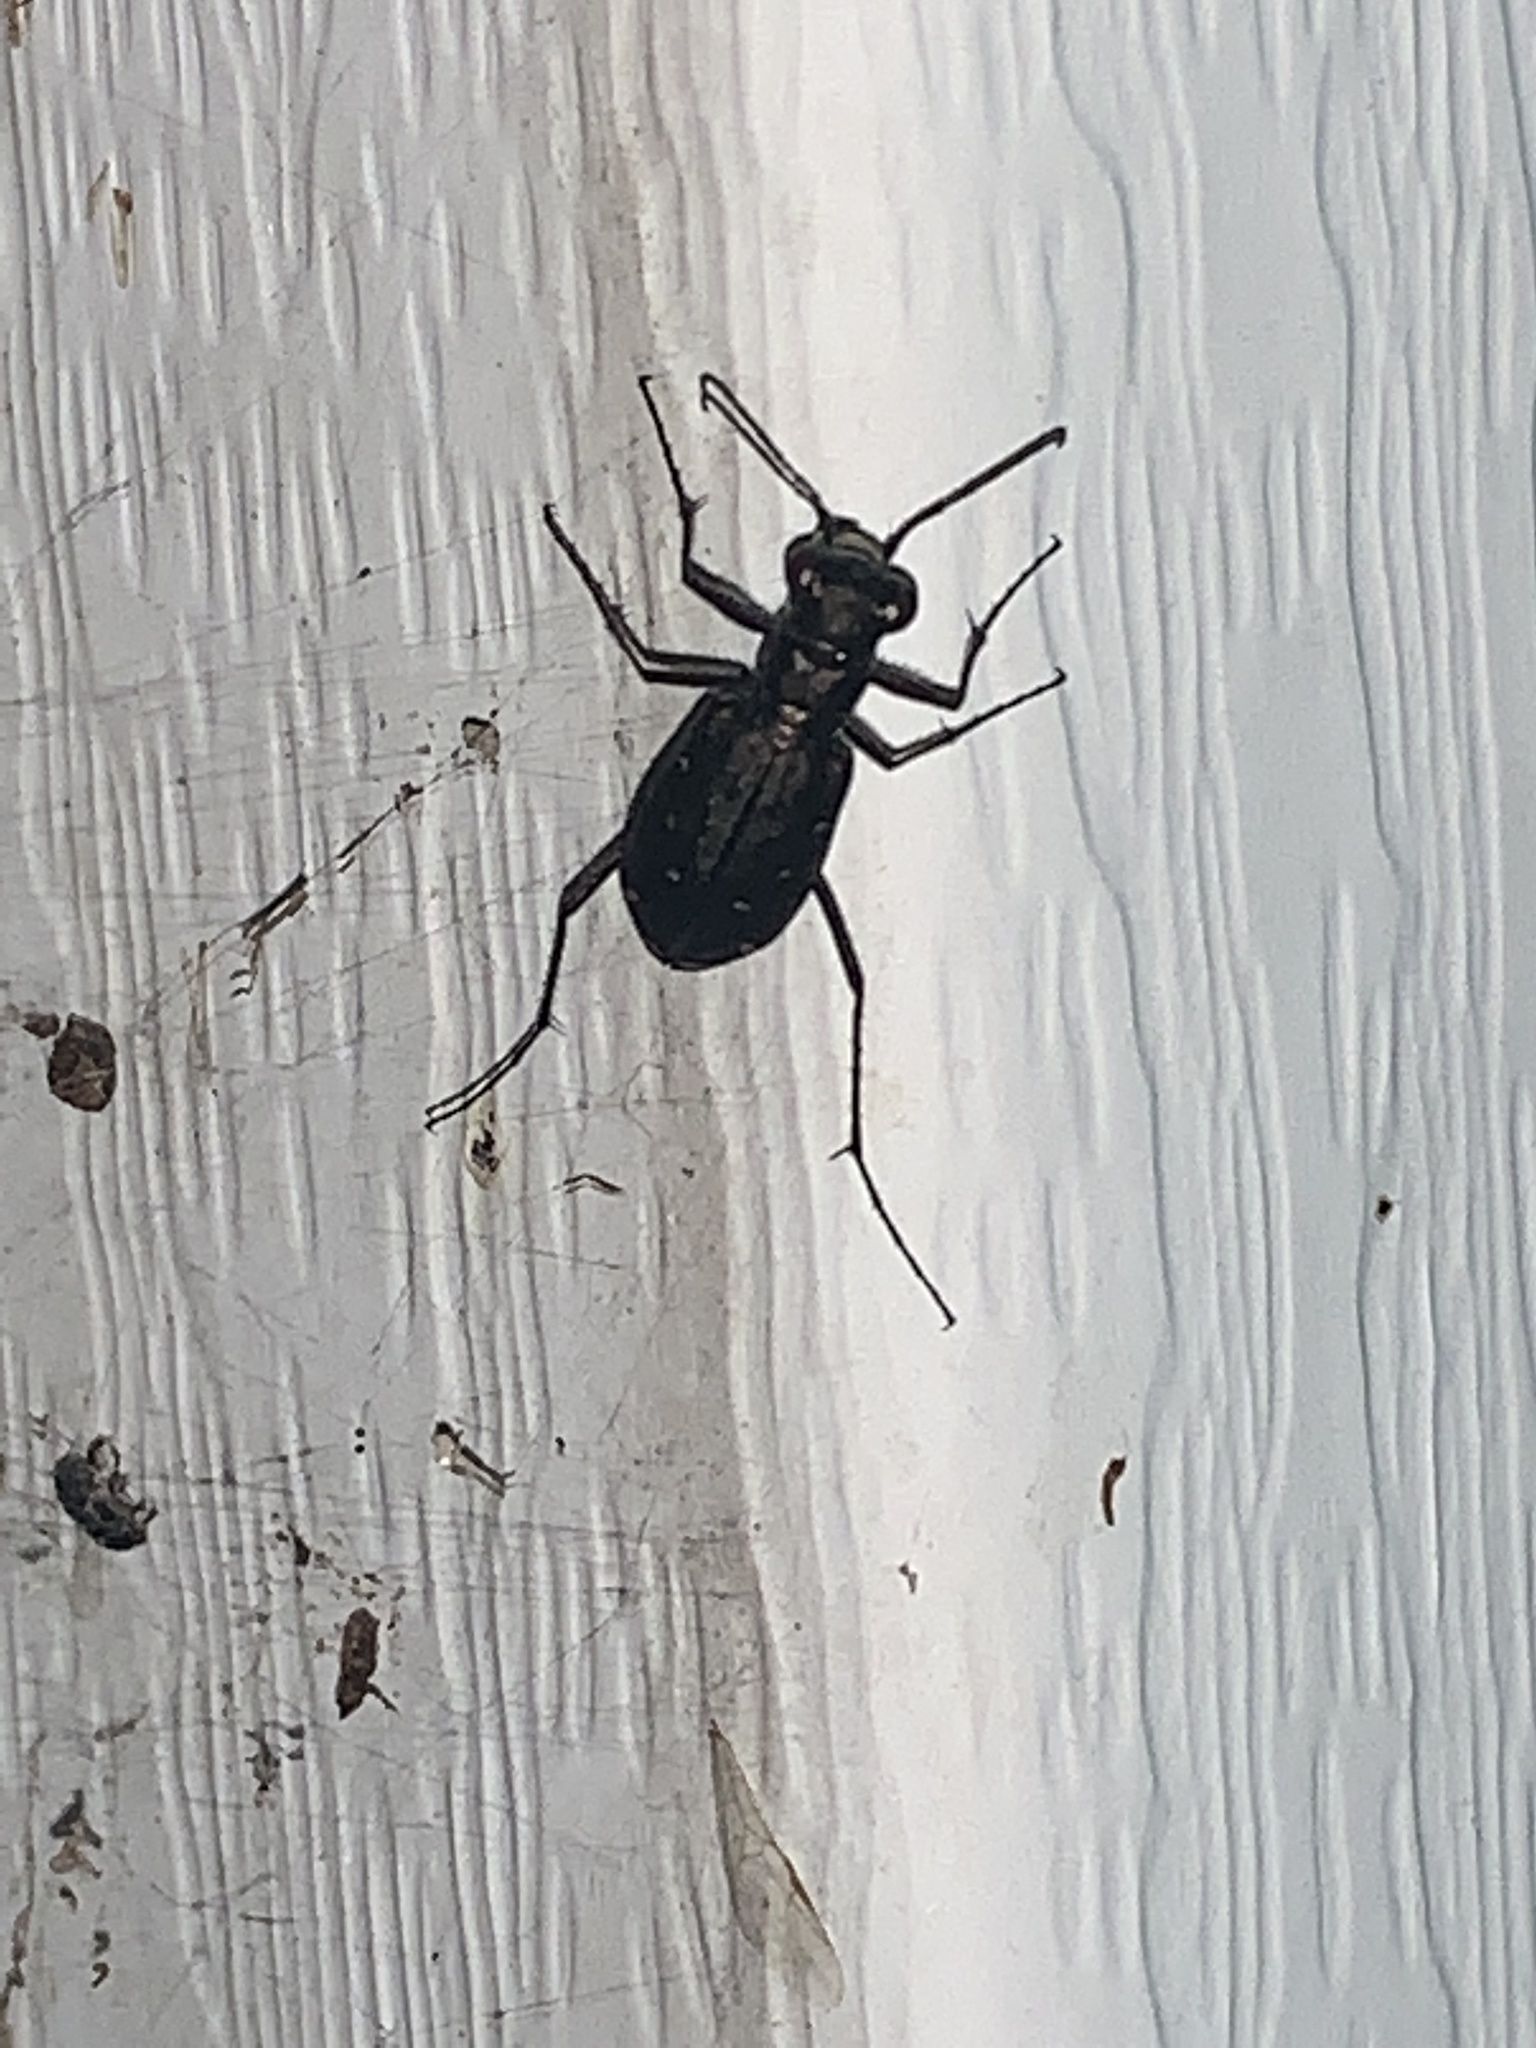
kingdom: Animalia
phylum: Arthropoda
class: Insecta
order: Coleoptera
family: Carabidae
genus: Cicindela
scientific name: Cicindela punctulata
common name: Punctured tiger beetle
